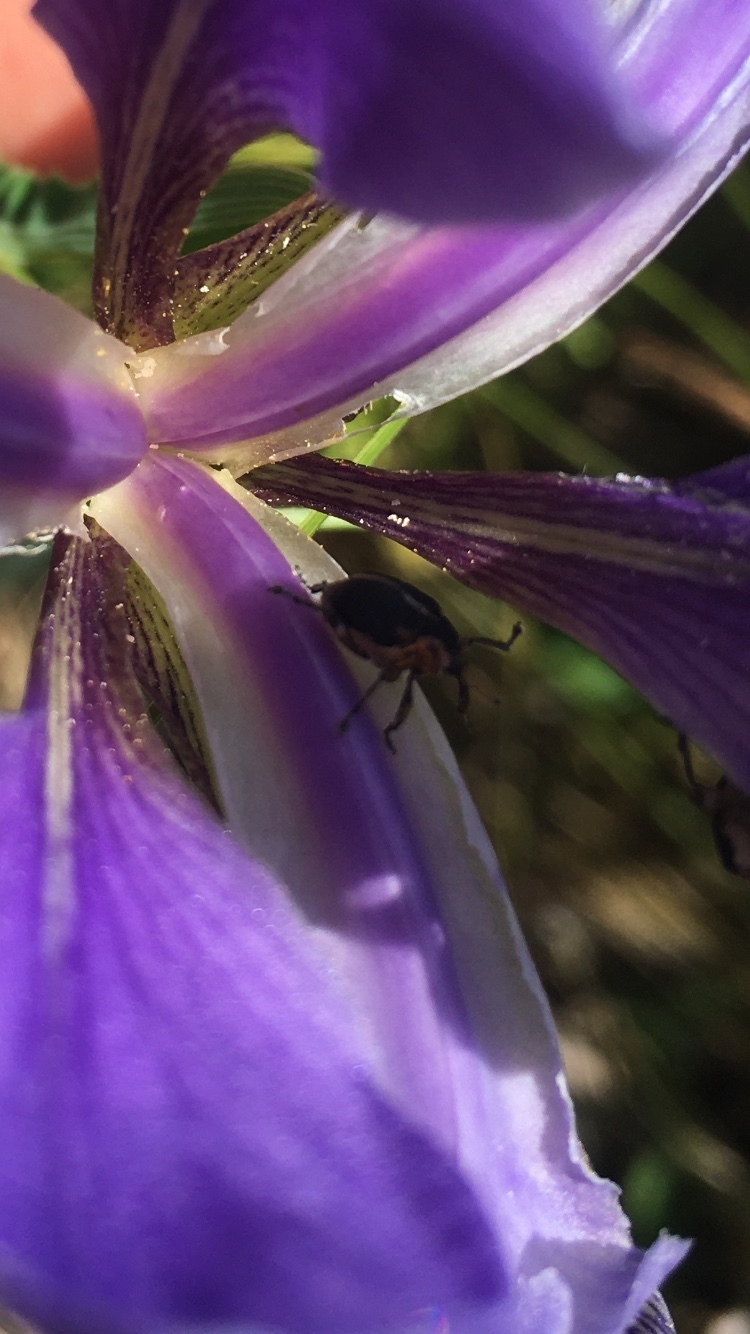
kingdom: Animalia
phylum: Arthropoda
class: Insecta
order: Coleoptera
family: Curculionidae
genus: Mononychus
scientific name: Mononychus vulpeculus
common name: Iris weevil
